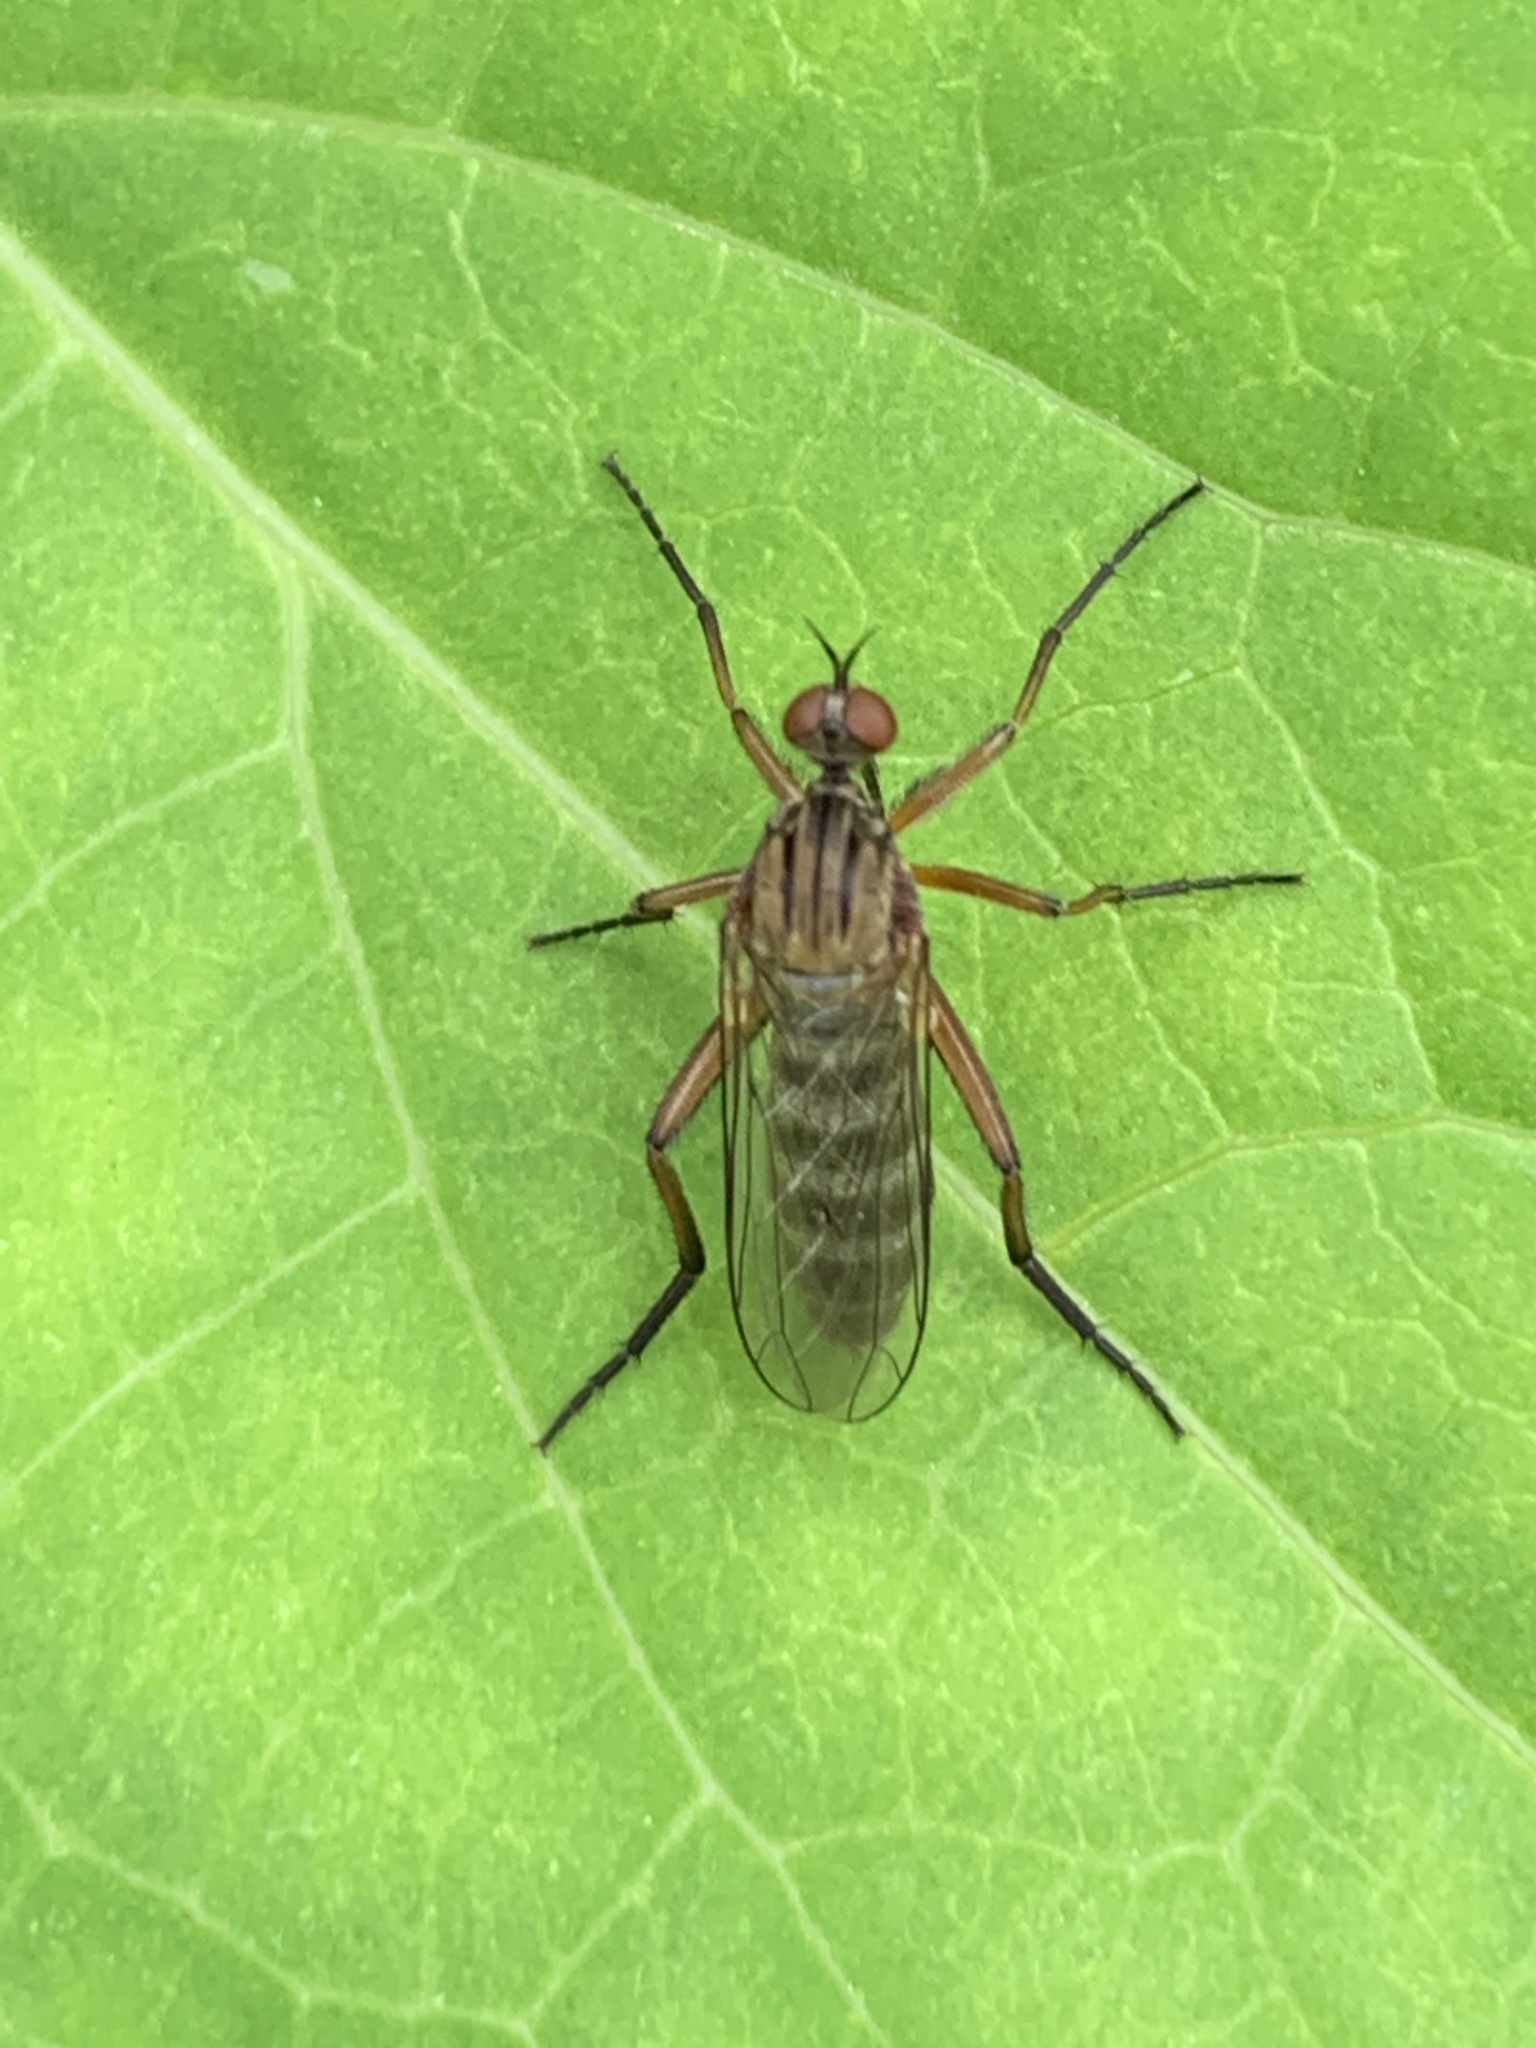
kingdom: Animalia
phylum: Arthropoda
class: Insecta
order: Diptera
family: Empididae
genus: Empis
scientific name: Empis livida
